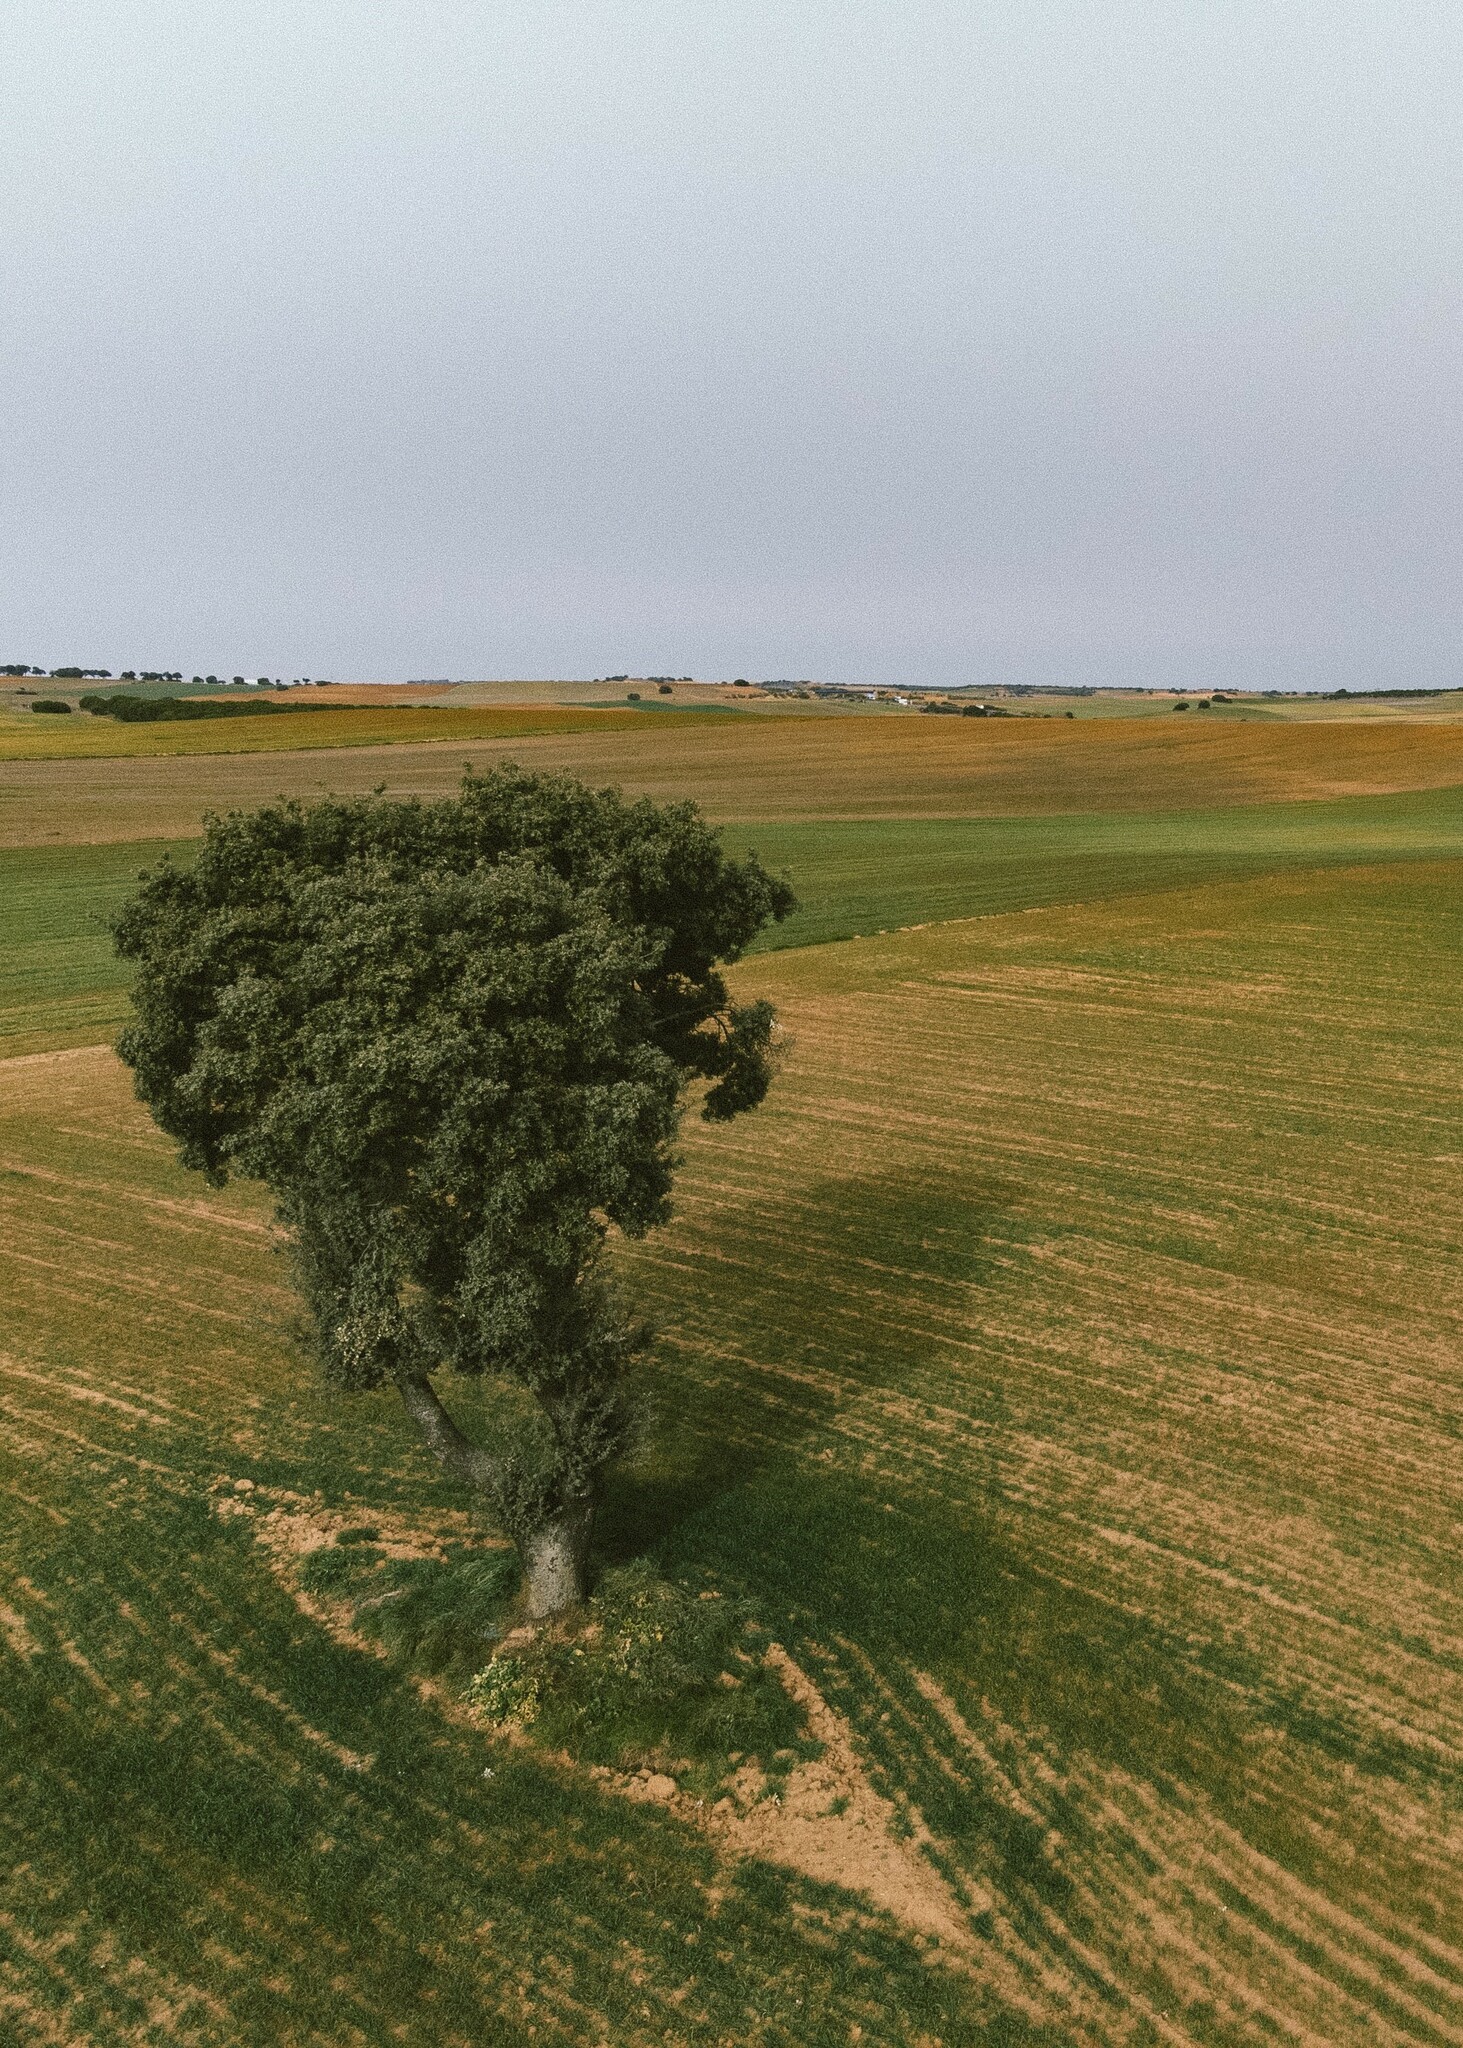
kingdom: Plantae
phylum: Tracheophyta
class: Magnoliopsida
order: Fagales
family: Fagaceae
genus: Quercus
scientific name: Quercus rotundifolia
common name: Holm oak
